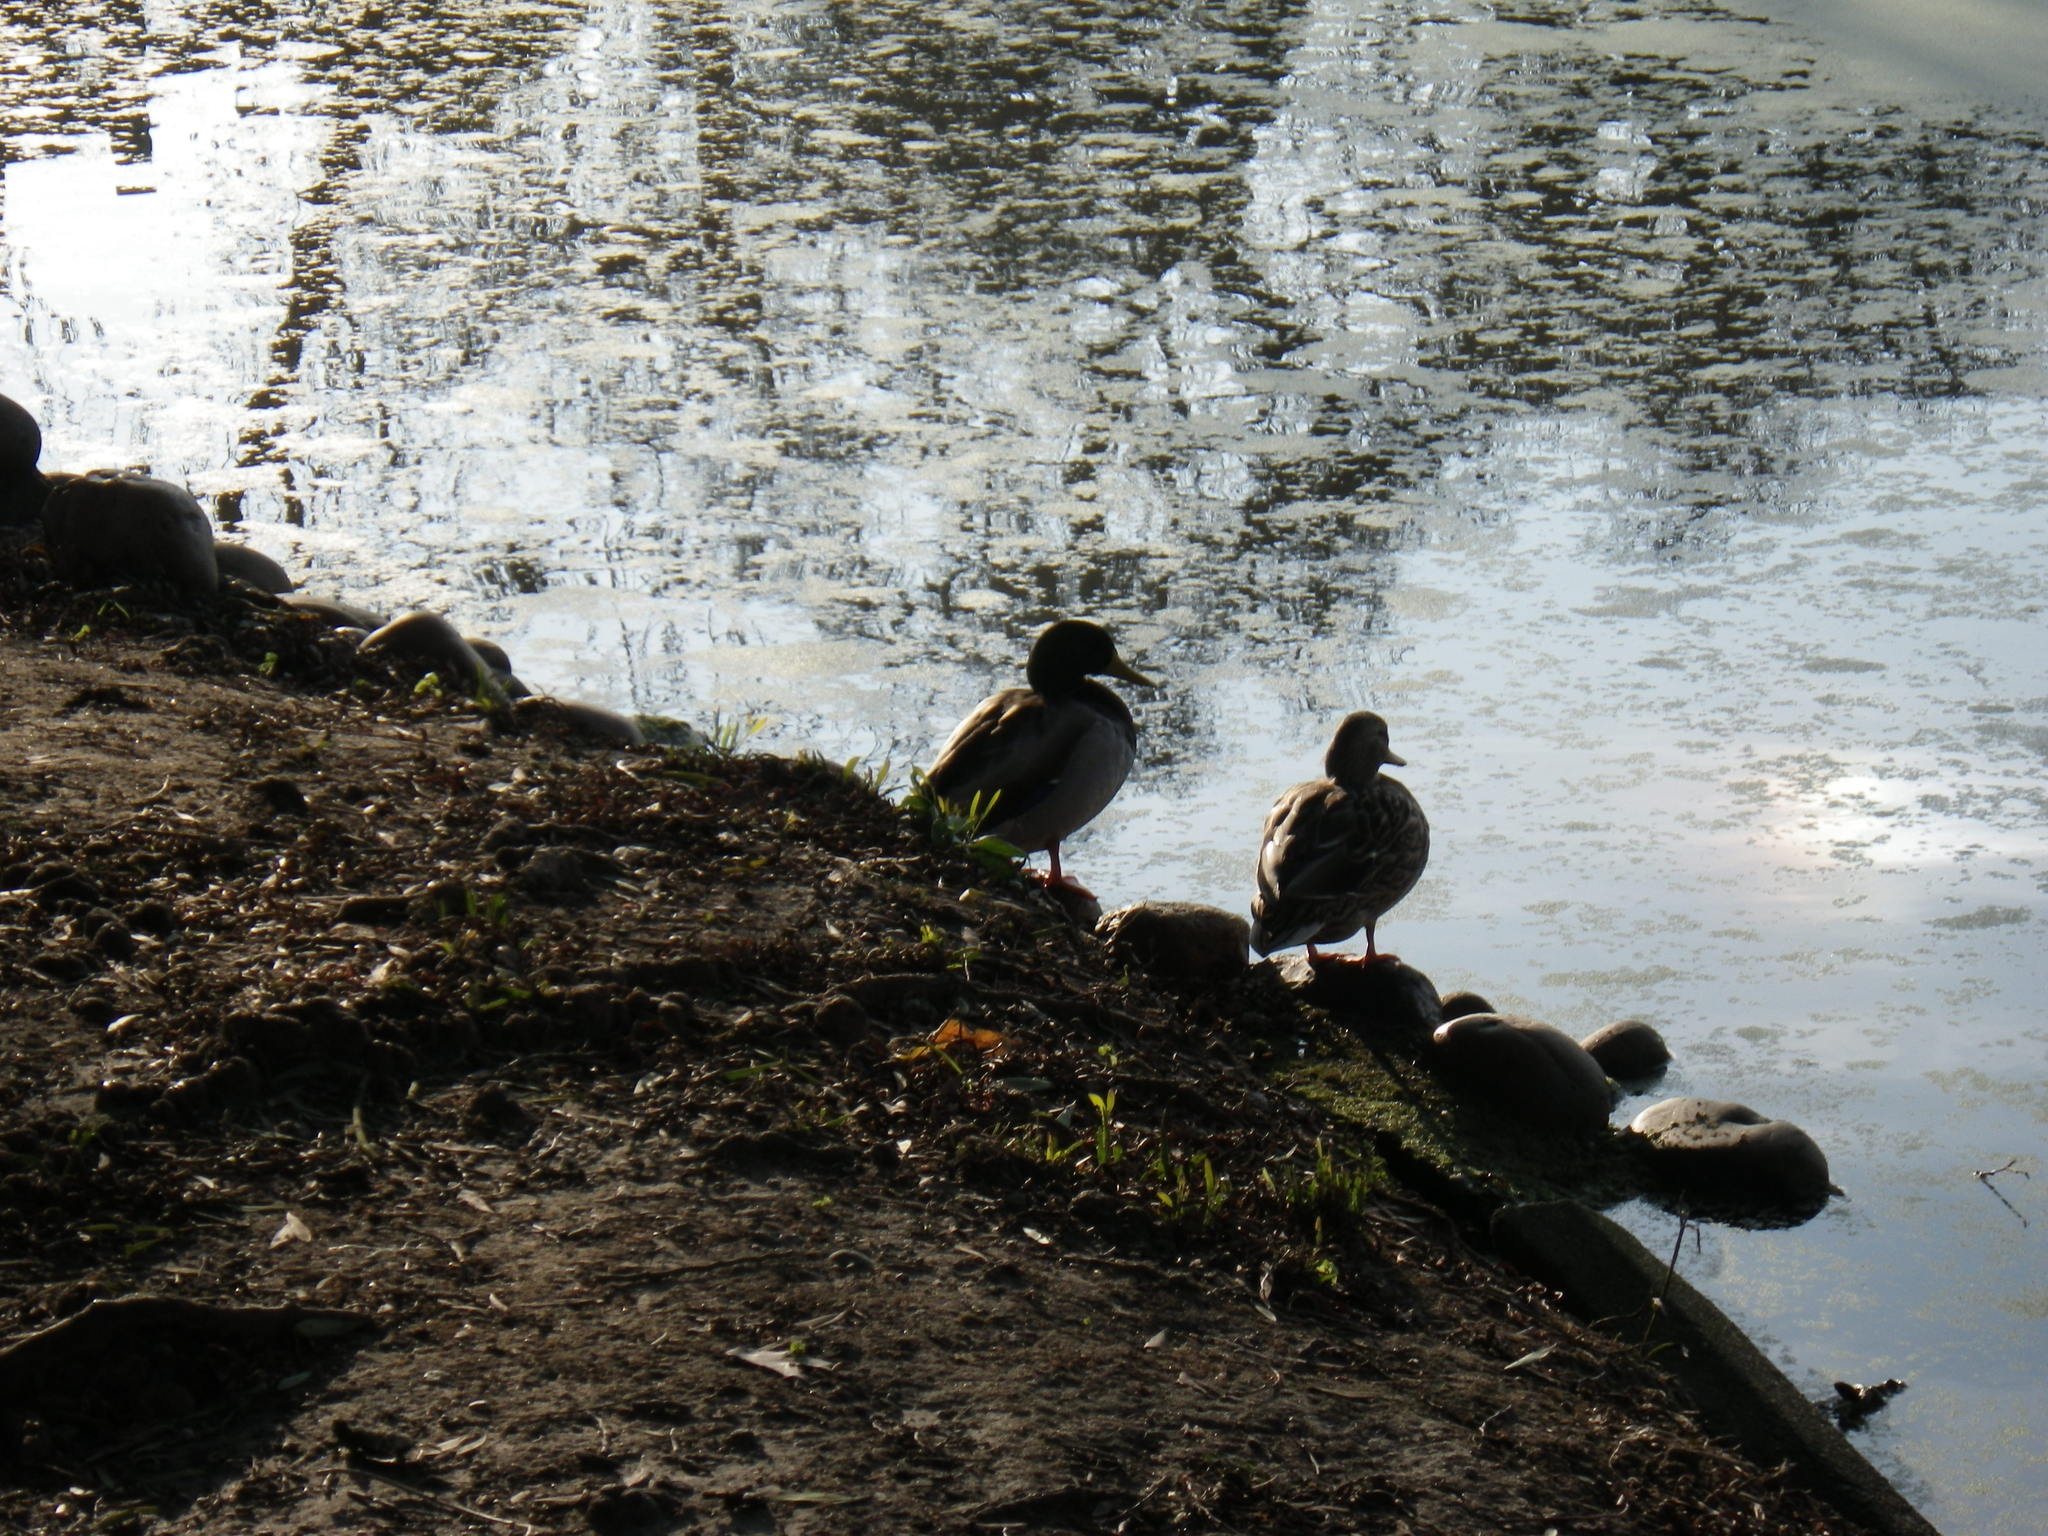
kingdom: Animalia
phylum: Chordata
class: Aves
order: Anseriformes
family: Anatidae
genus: Anas
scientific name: Anas platyrhynchos
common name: Mallard
